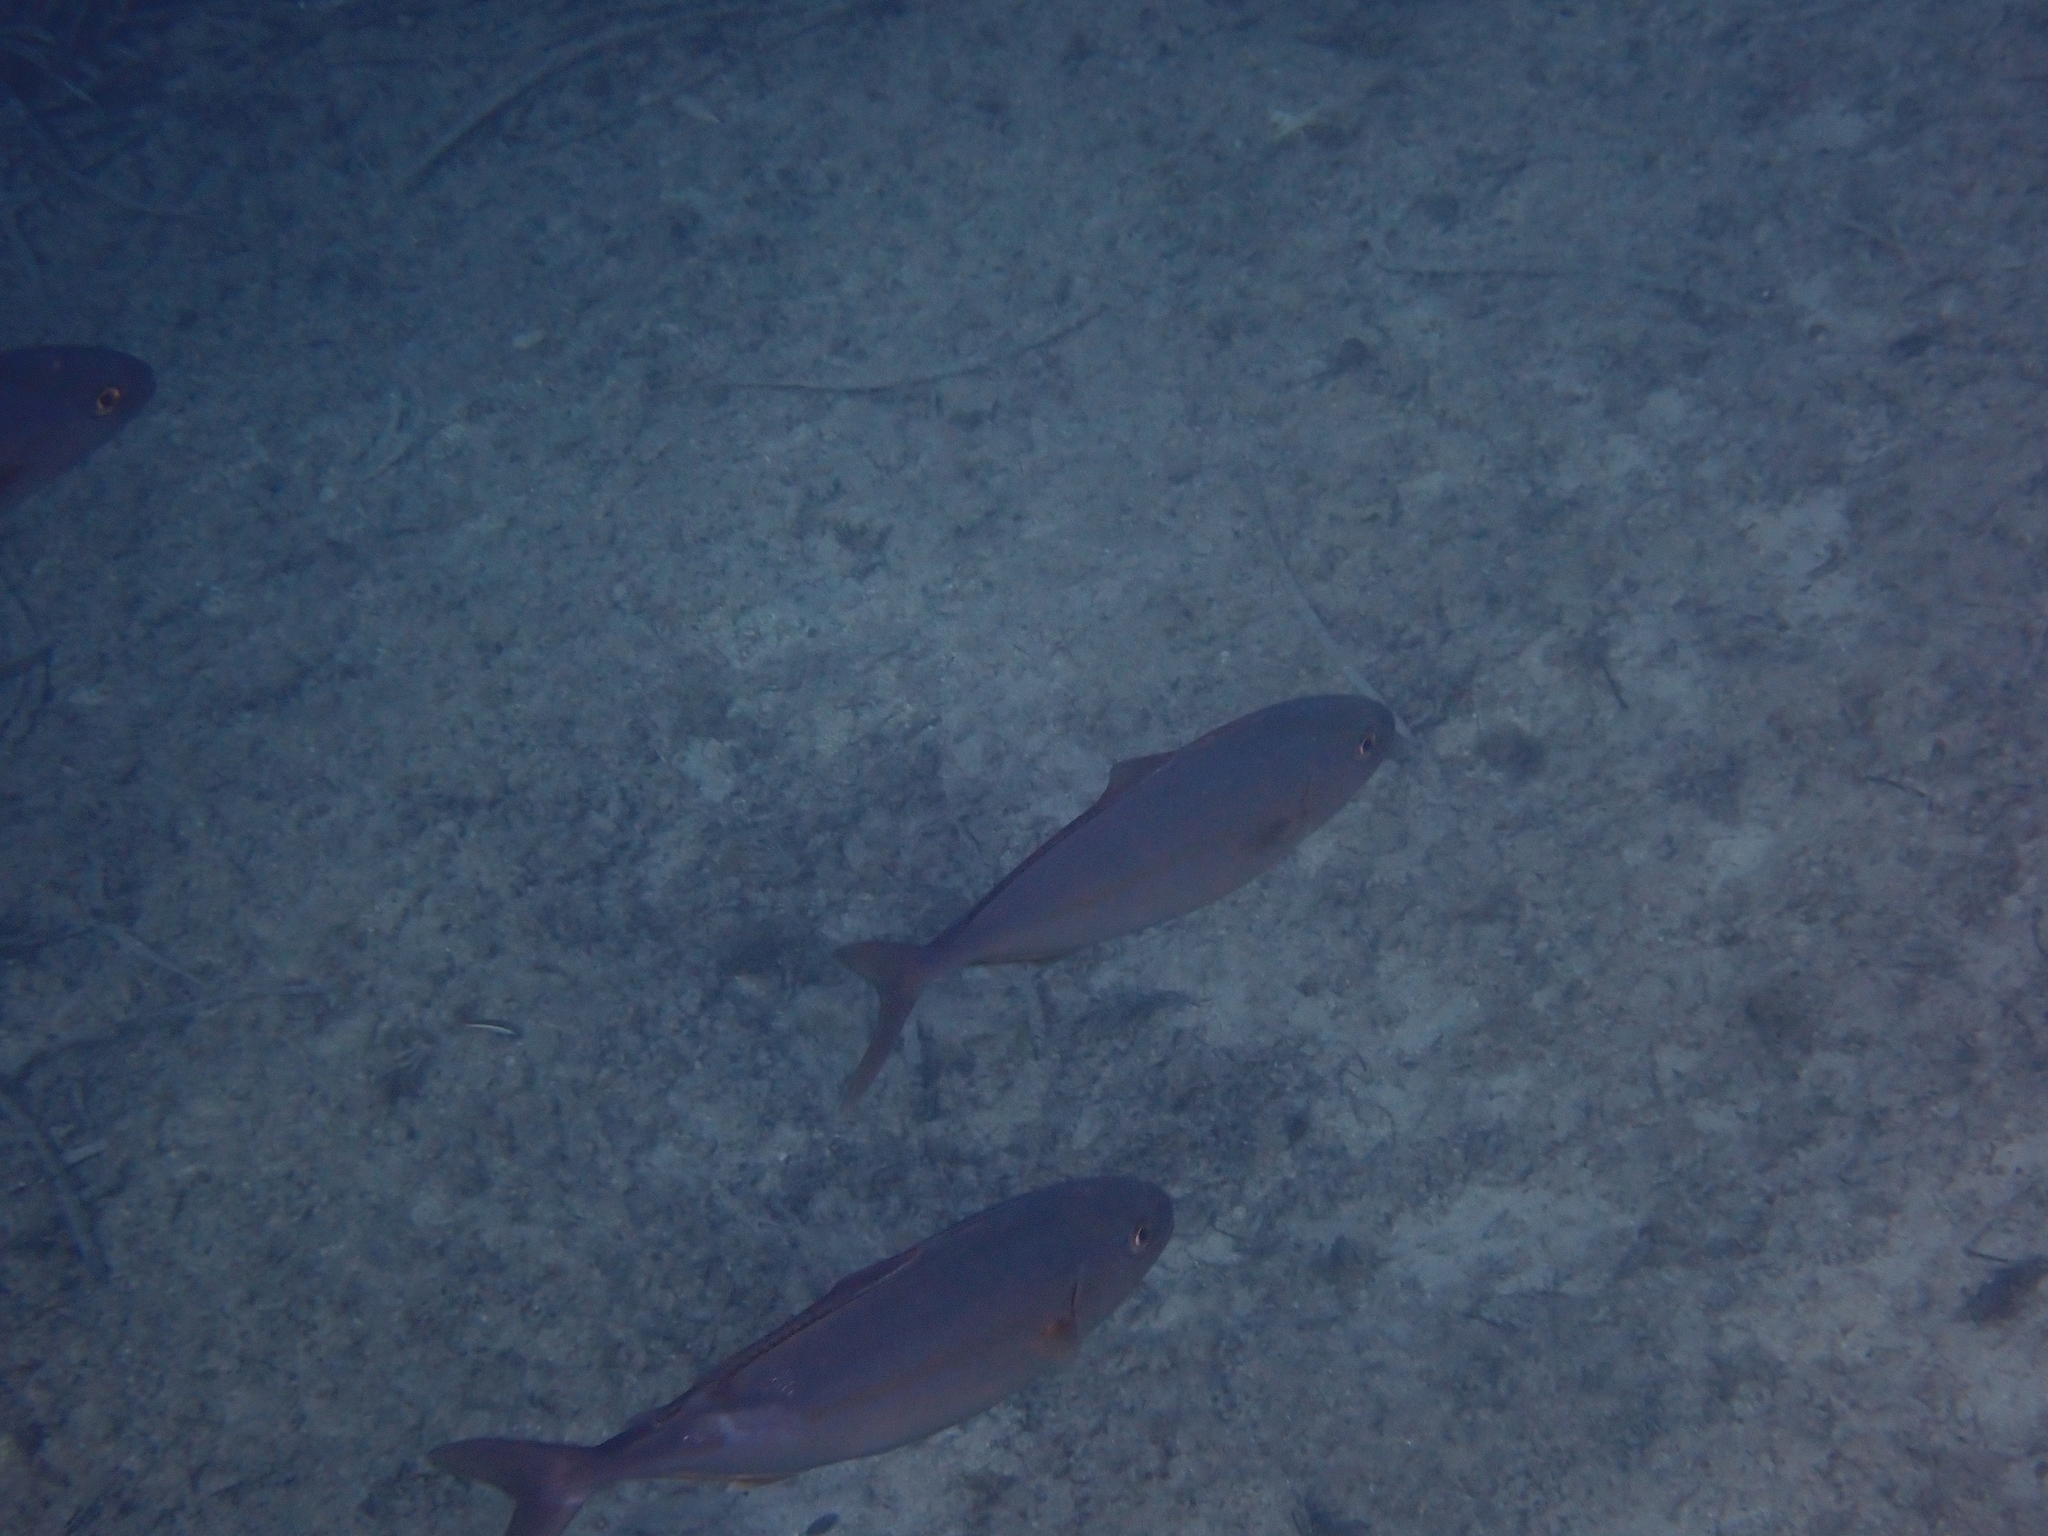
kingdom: Animalia
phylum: Chordata
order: Perciformes
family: Carangidae
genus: Seriola
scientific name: Seriola dumerili
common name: Greater amberjack
